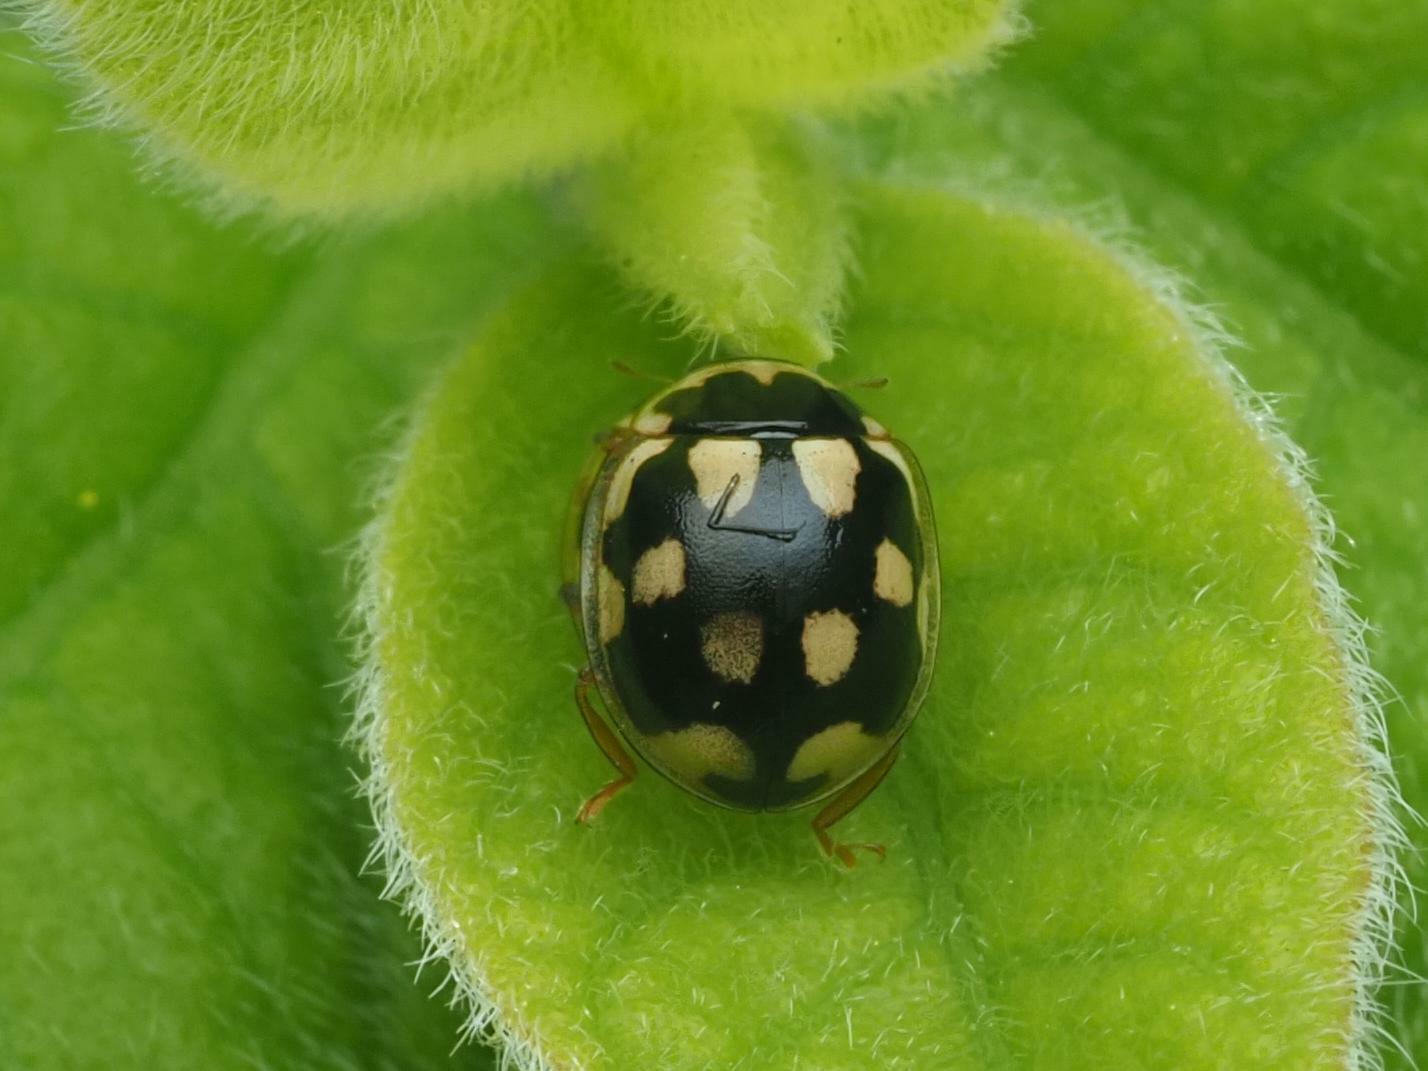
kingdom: Animalia
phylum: Arthropoda
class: Insecta
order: Coleoptera
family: Coccinellidae
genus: Propylaea
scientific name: Propylaea quatuordecimpunctata
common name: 14-spotted ladybird beetle
